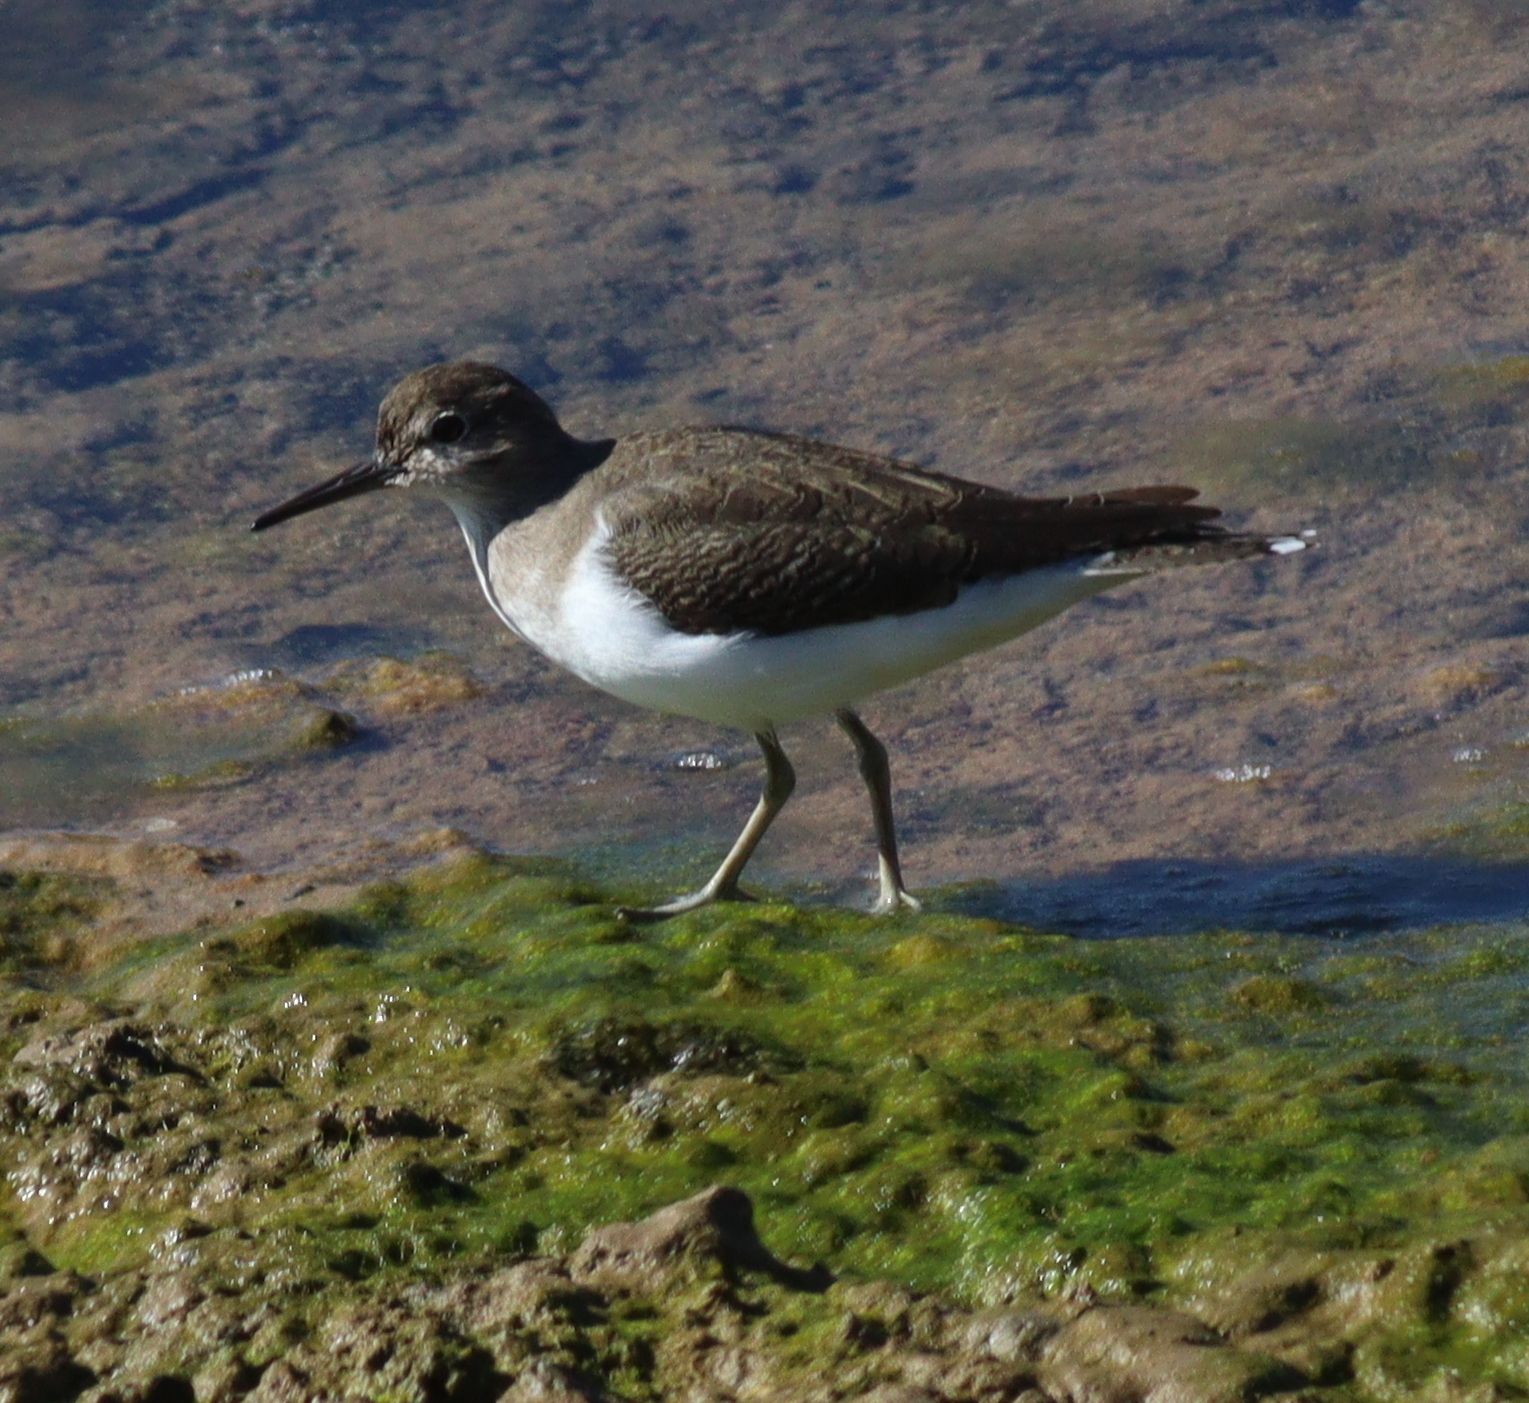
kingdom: Animalia
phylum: Chordata
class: Aves
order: Charadriiformes
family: Scolopacidae
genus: Actitis
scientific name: Actitis hypoleucos
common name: Common sandpiper
